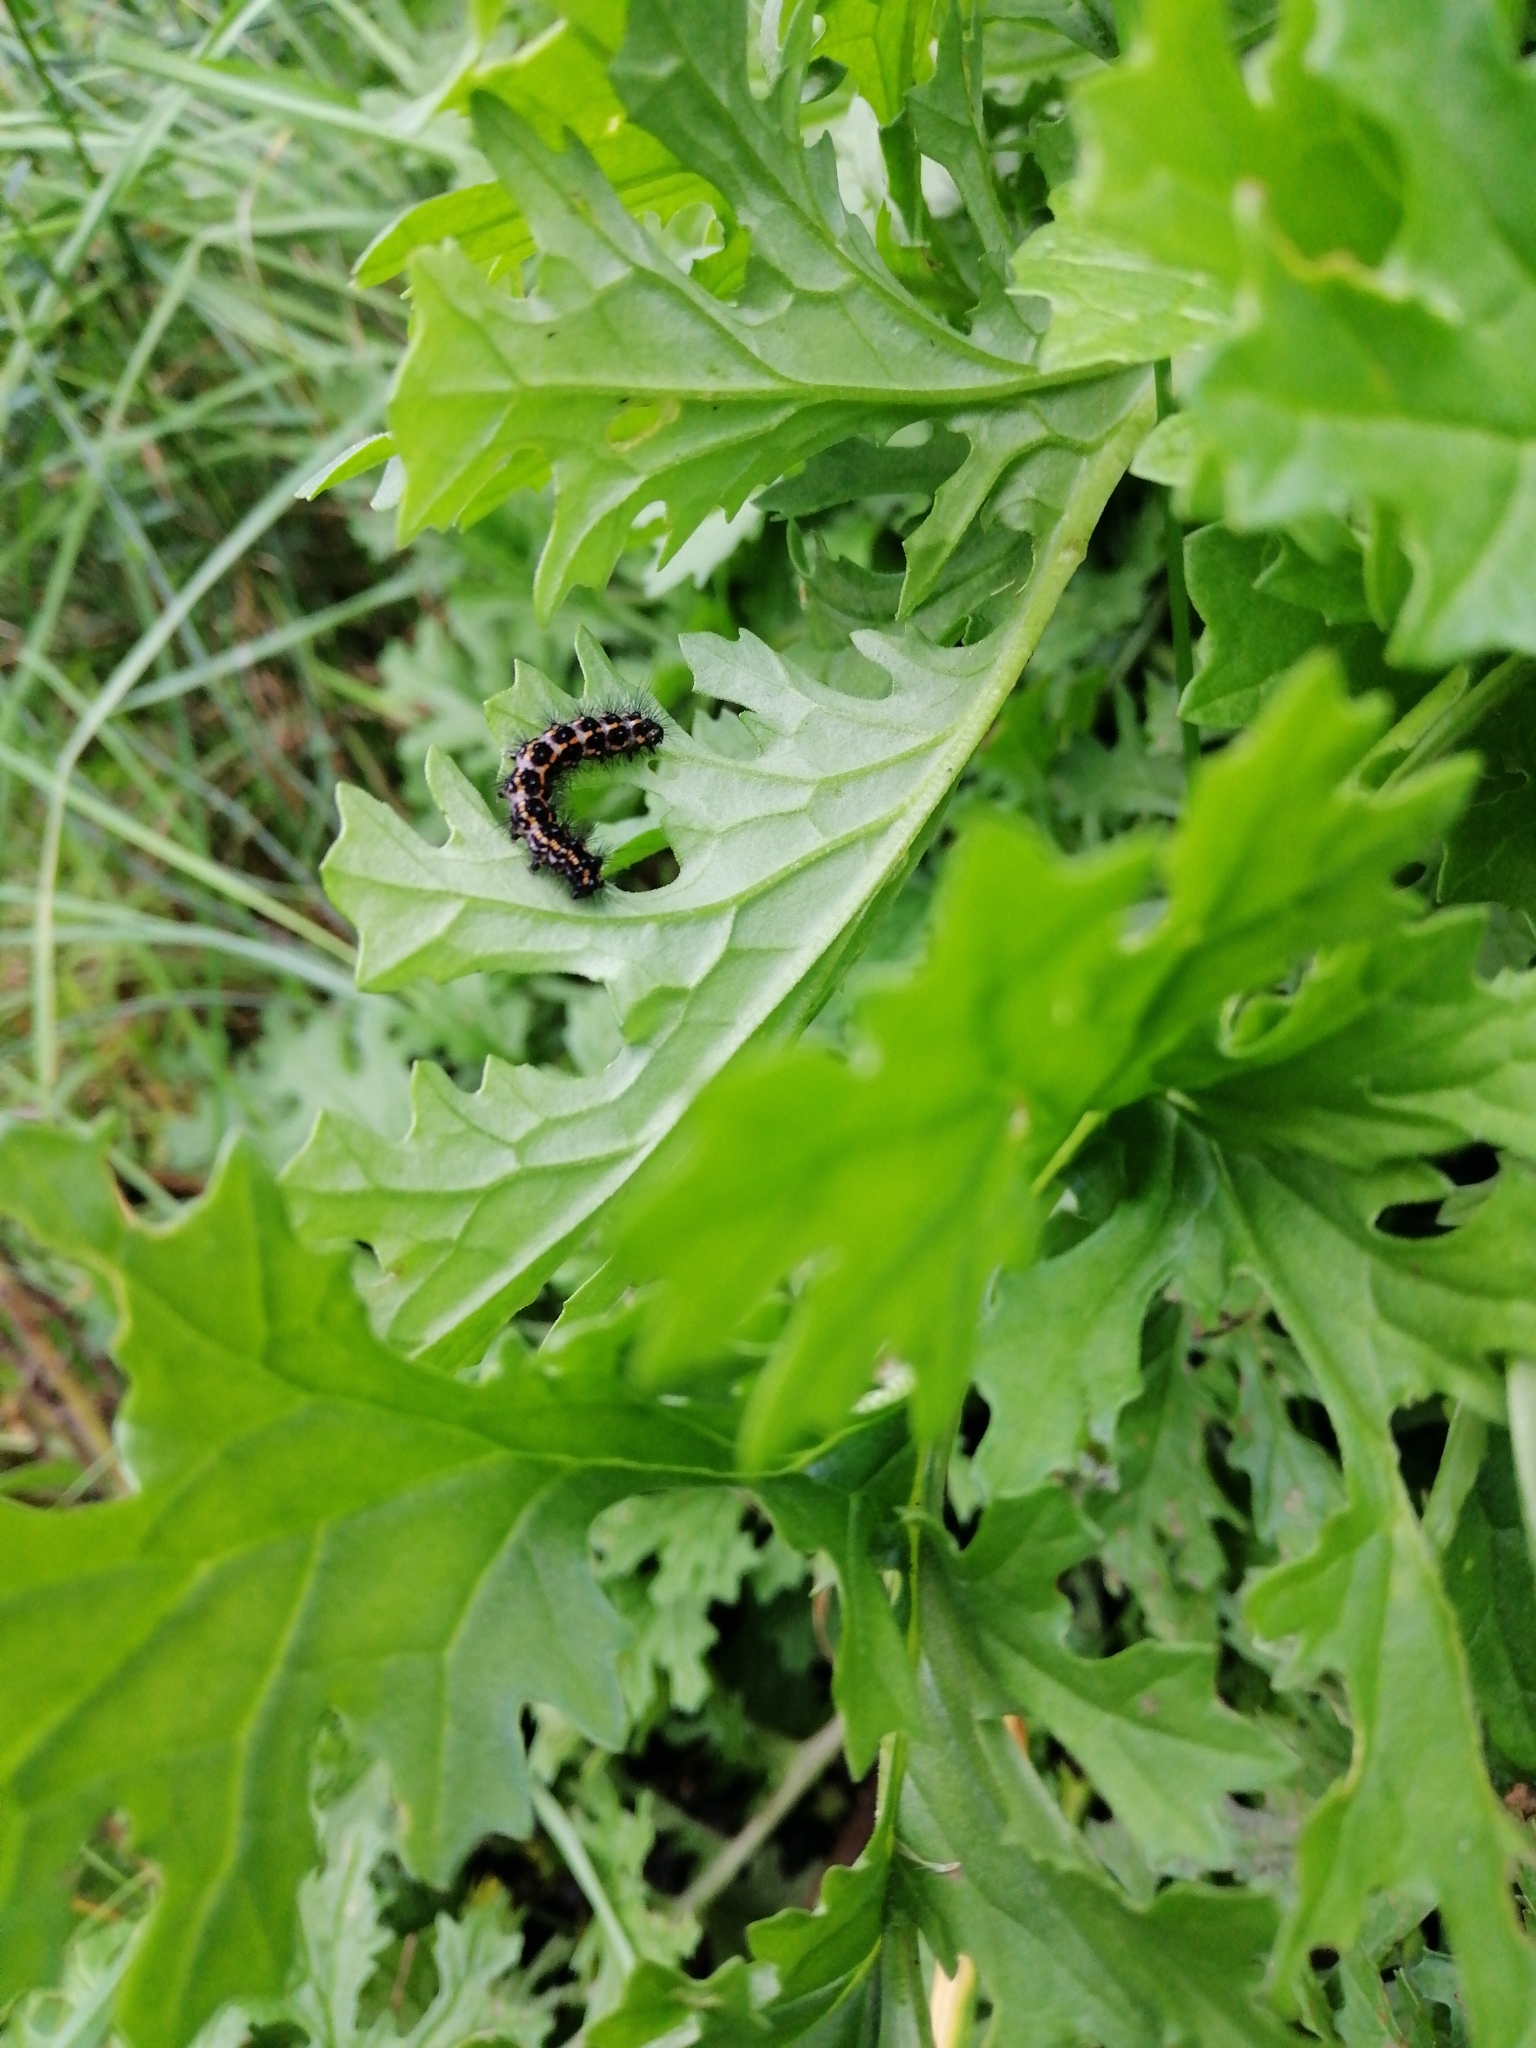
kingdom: Animalia
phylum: Arthropoda
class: Insecta
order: Lepidoptera
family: Erebidae
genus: Nyctemera
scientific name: Nyctemera annulatum
